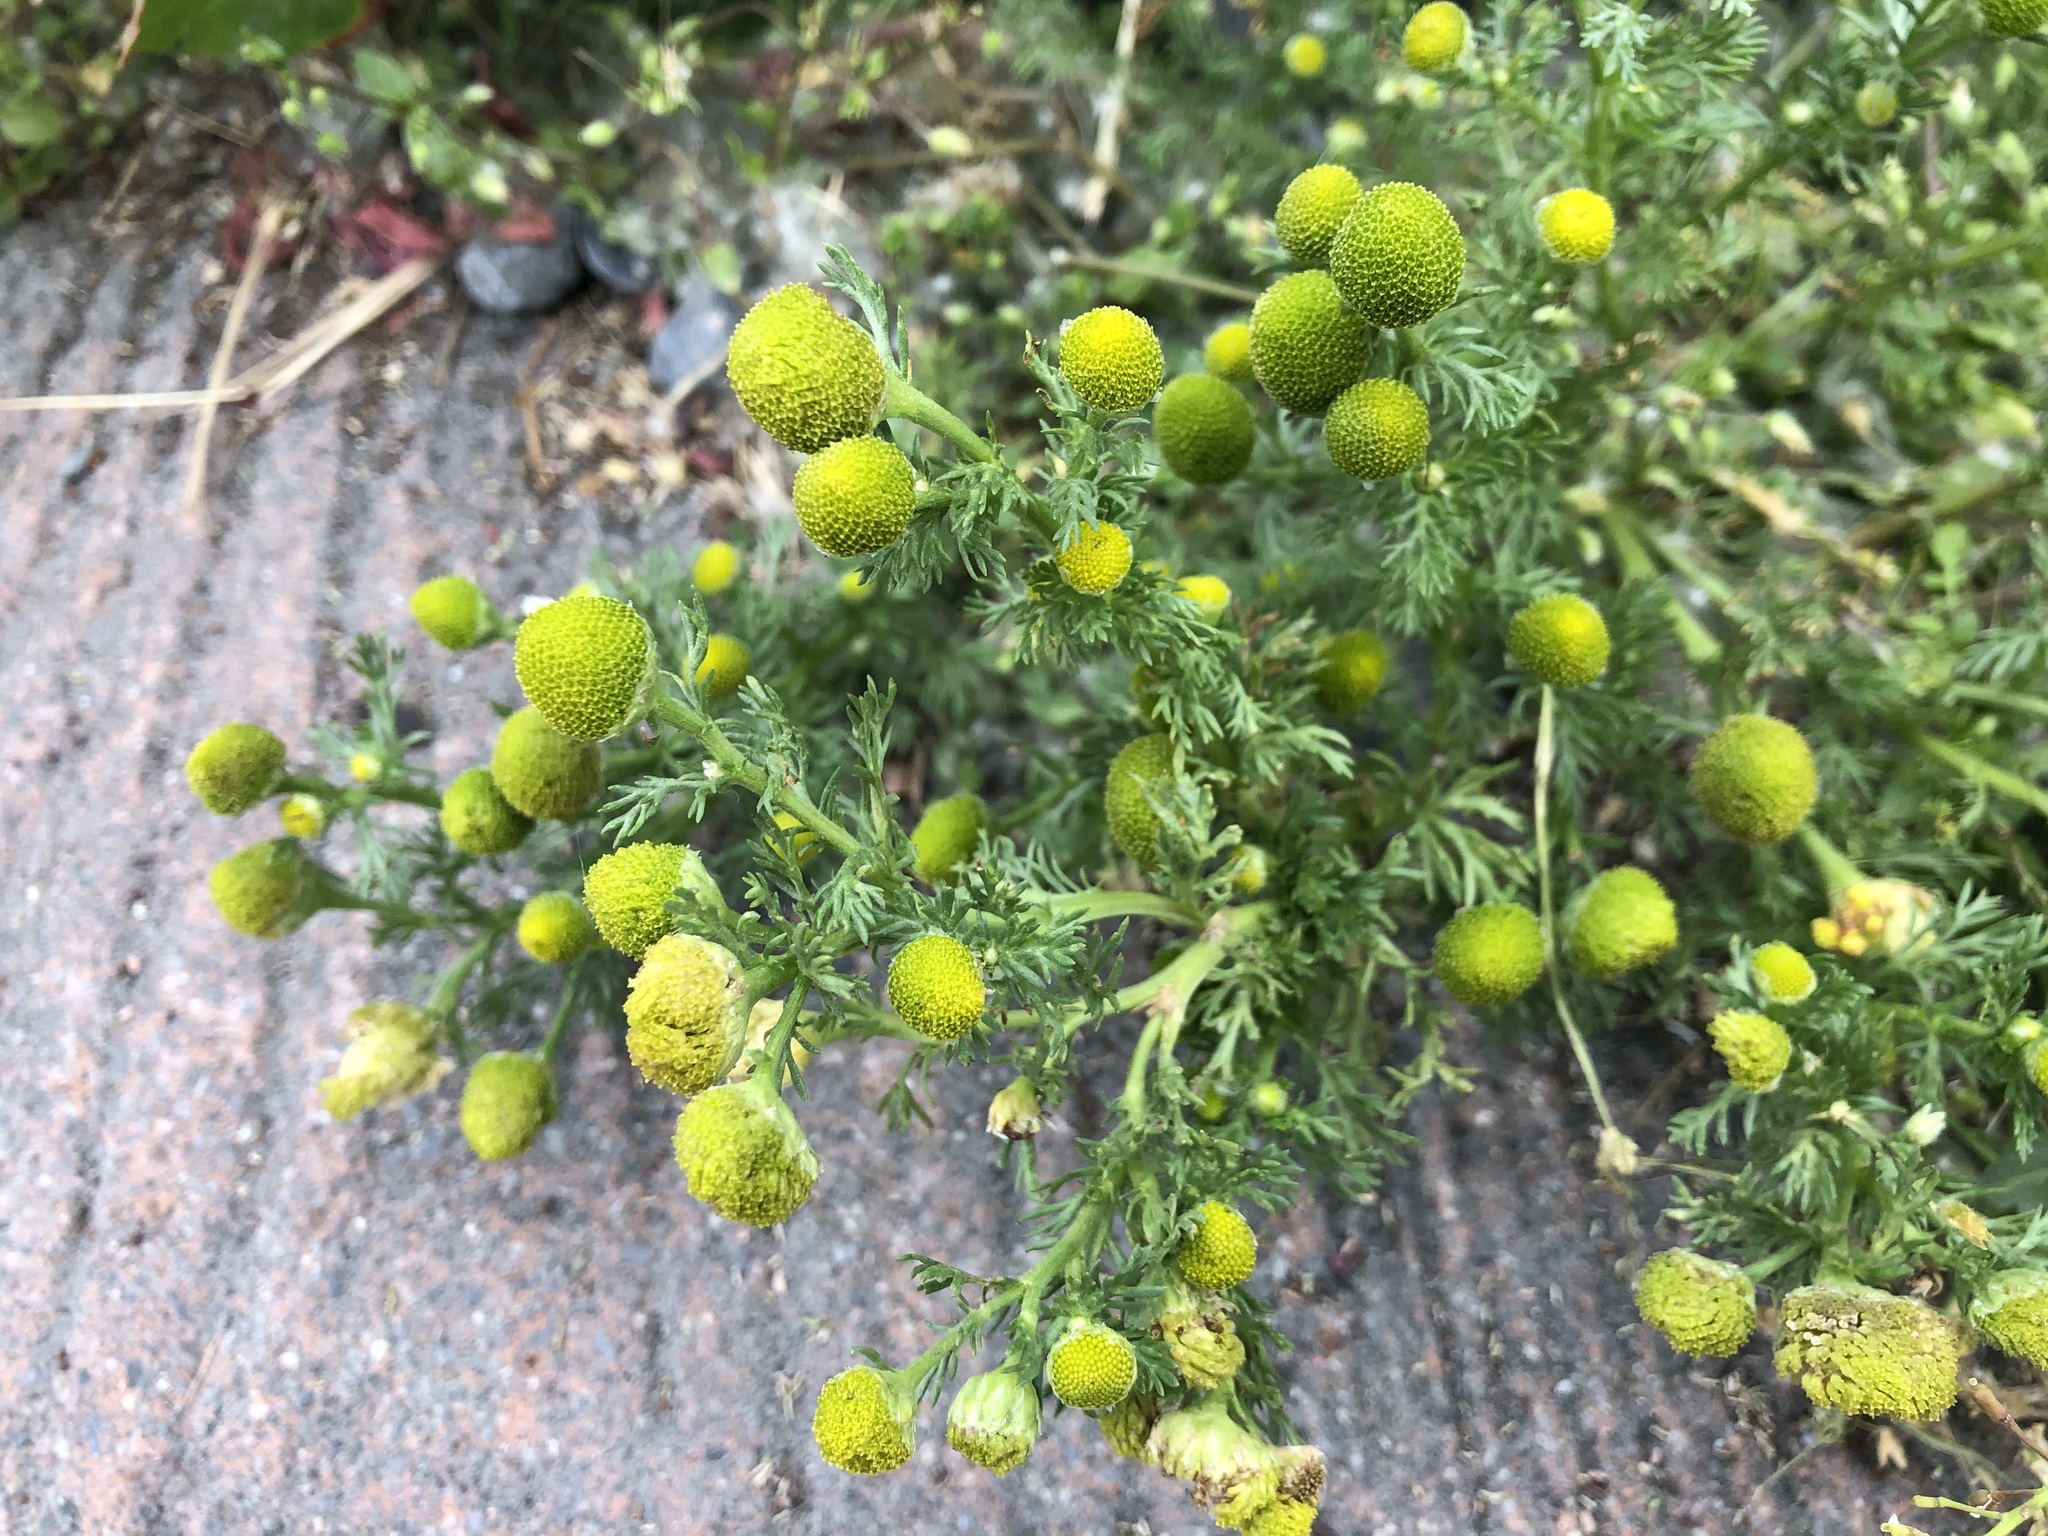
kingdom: Plantae
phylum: Tracheophyta
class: Magnoliopsida
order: Asterales
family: Asteraceae
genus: Matricaria
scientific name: Matricaria discoidea
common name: Disc mayweed
